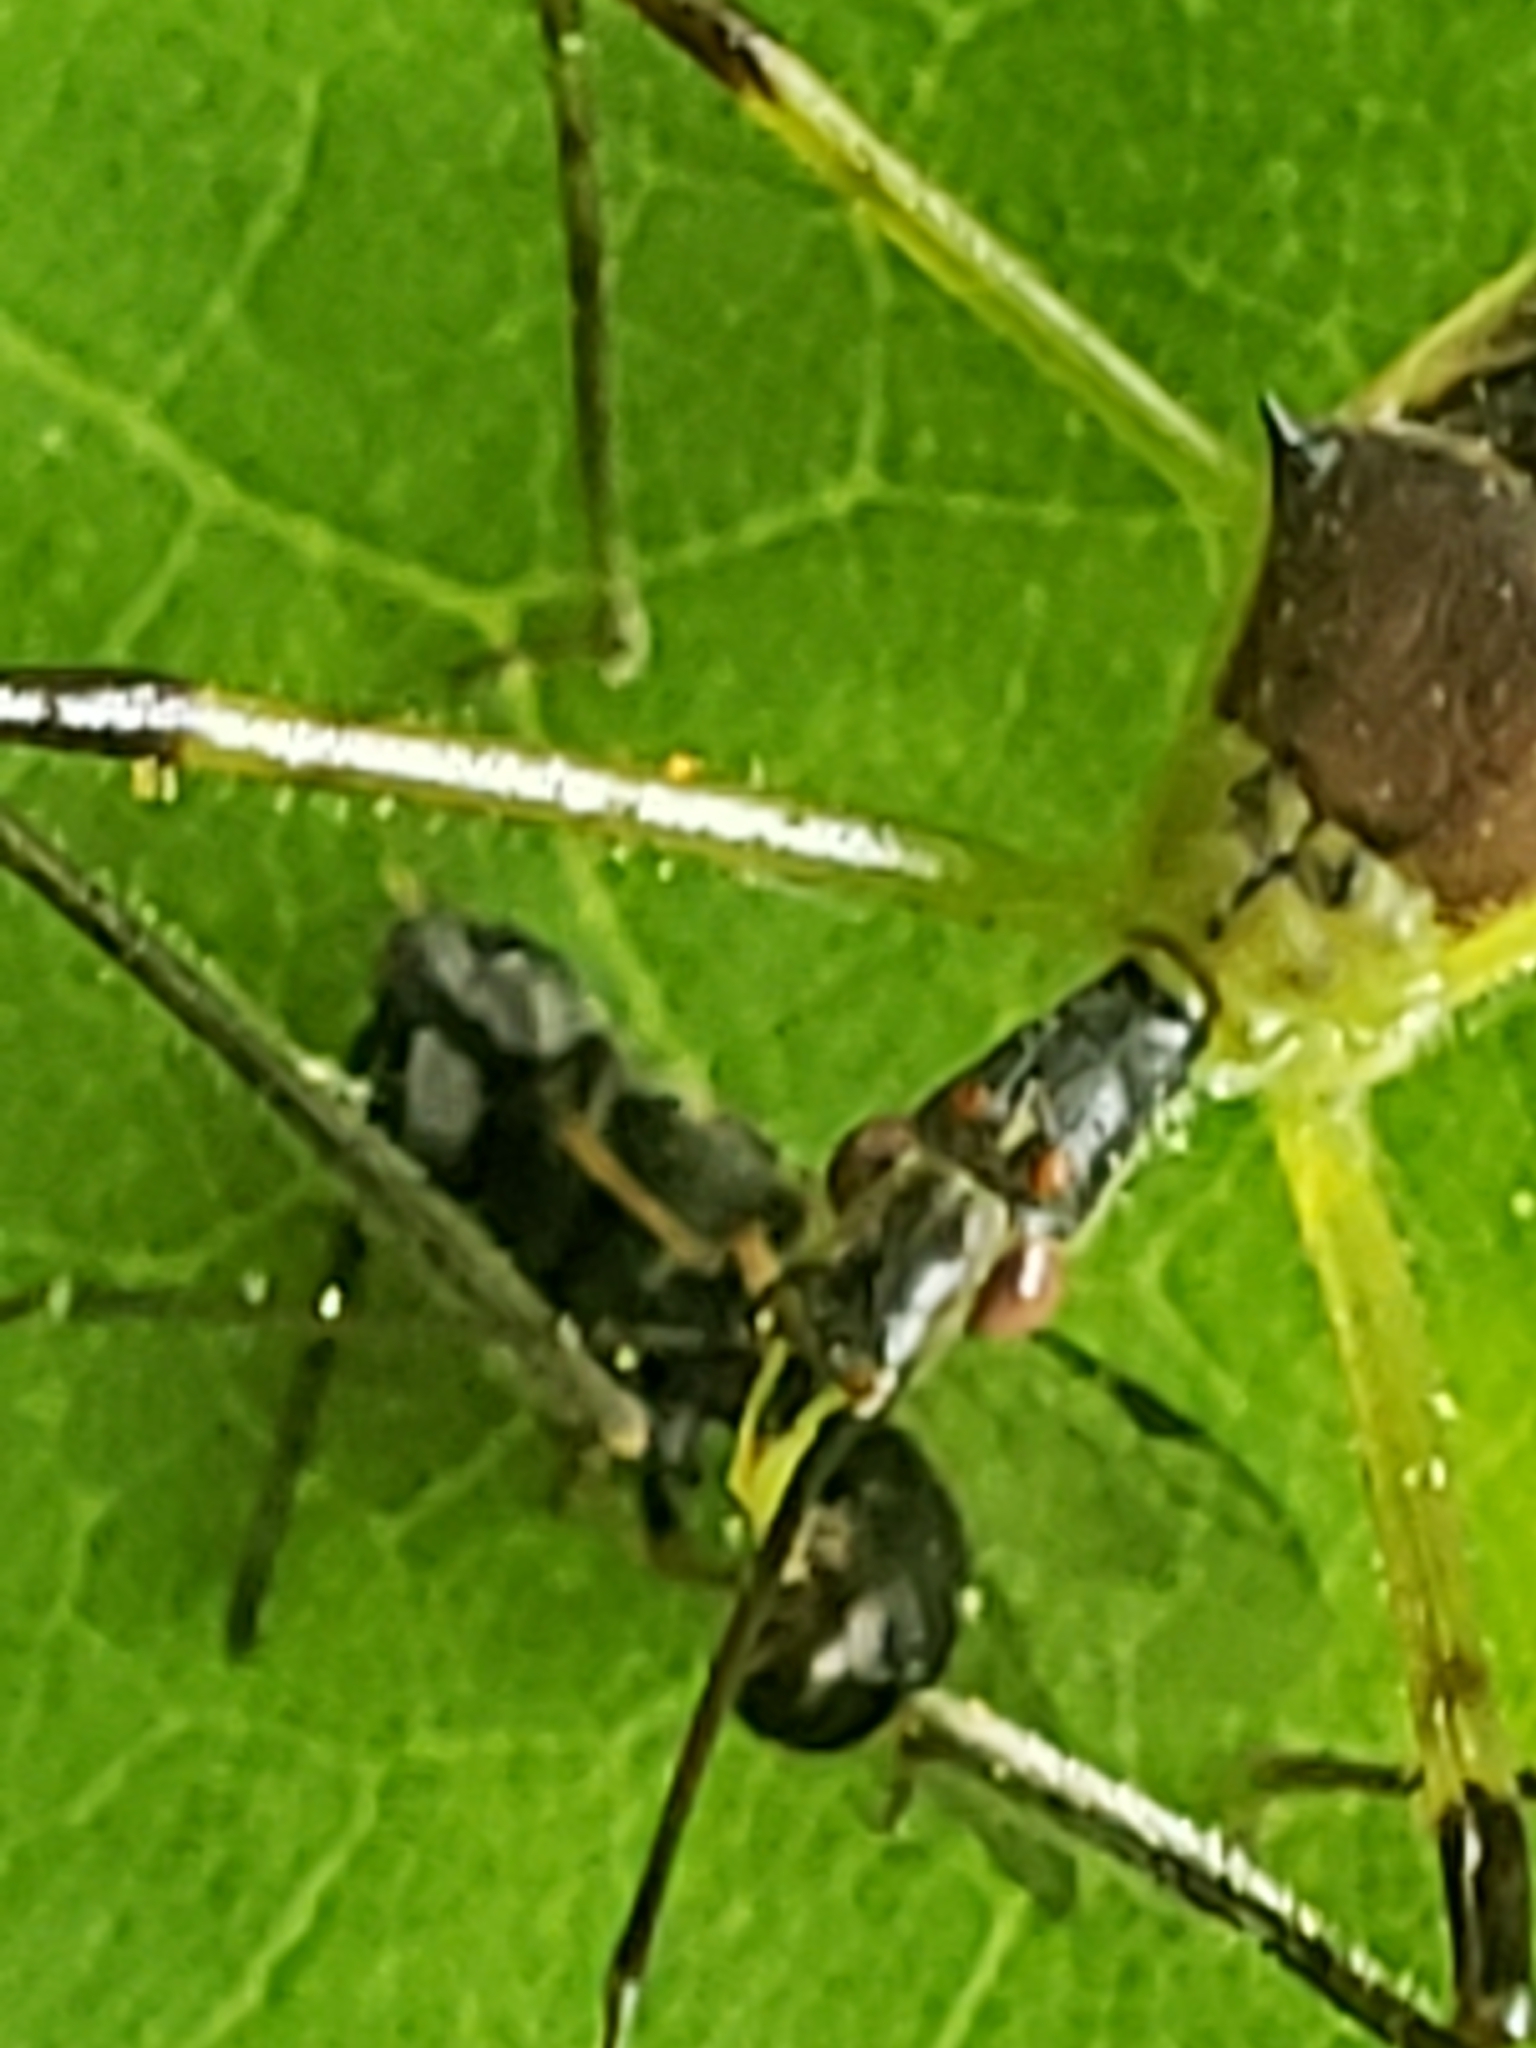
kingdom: Animalia
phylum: Arthropoda
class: Insecta
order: Hemiptera
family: Reduviidae
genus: Zelus
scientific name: Zelus luridus
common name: Pale green assassin bug
